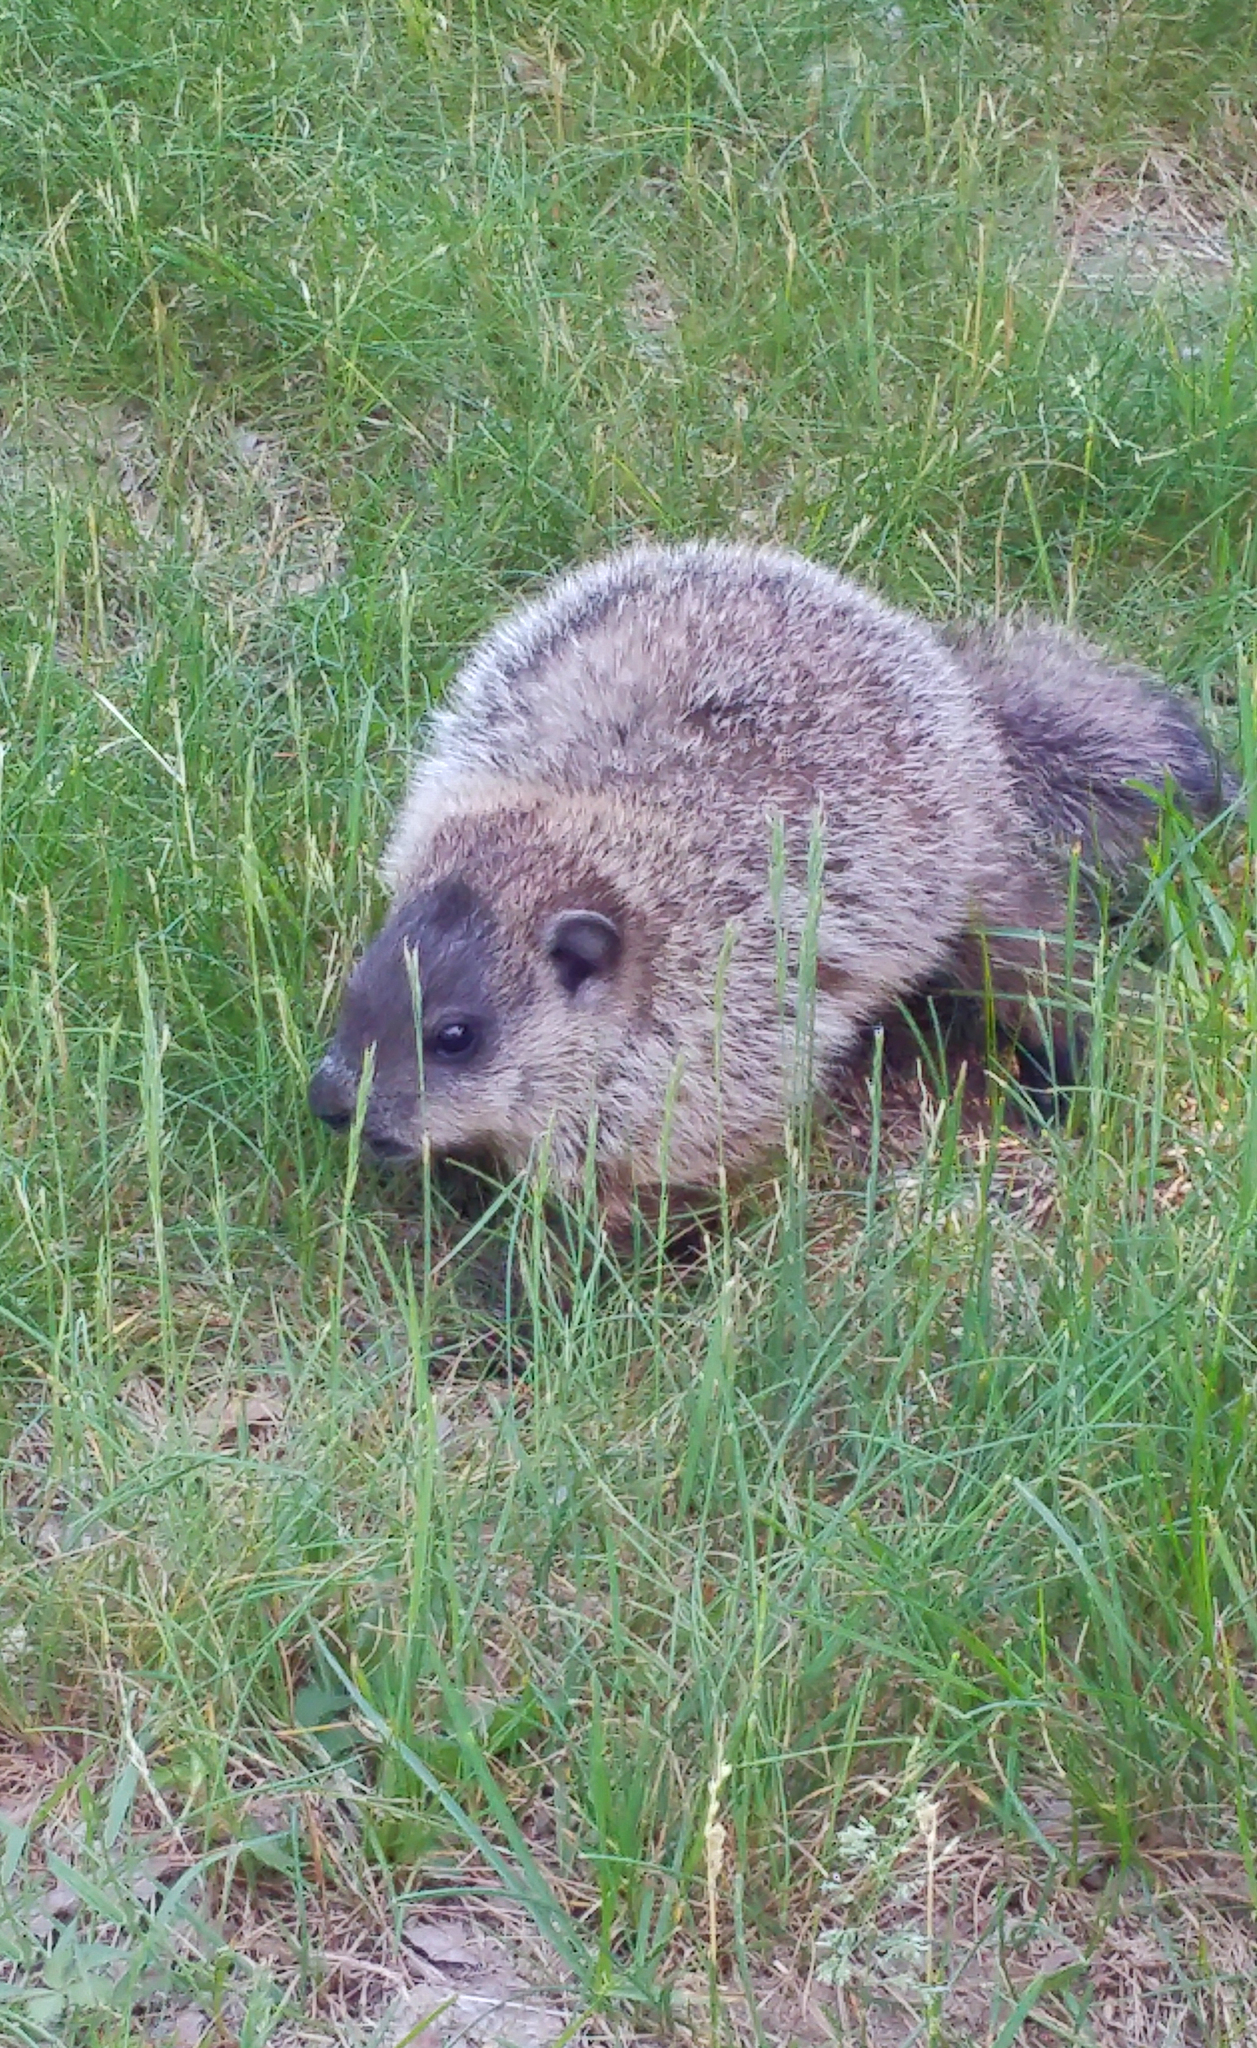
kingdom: Animalia
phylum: Chordata
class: Mammalia
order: Rodentia
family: Sciuridae
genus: Marmota
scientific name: Marmota monax
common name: Groundhog
